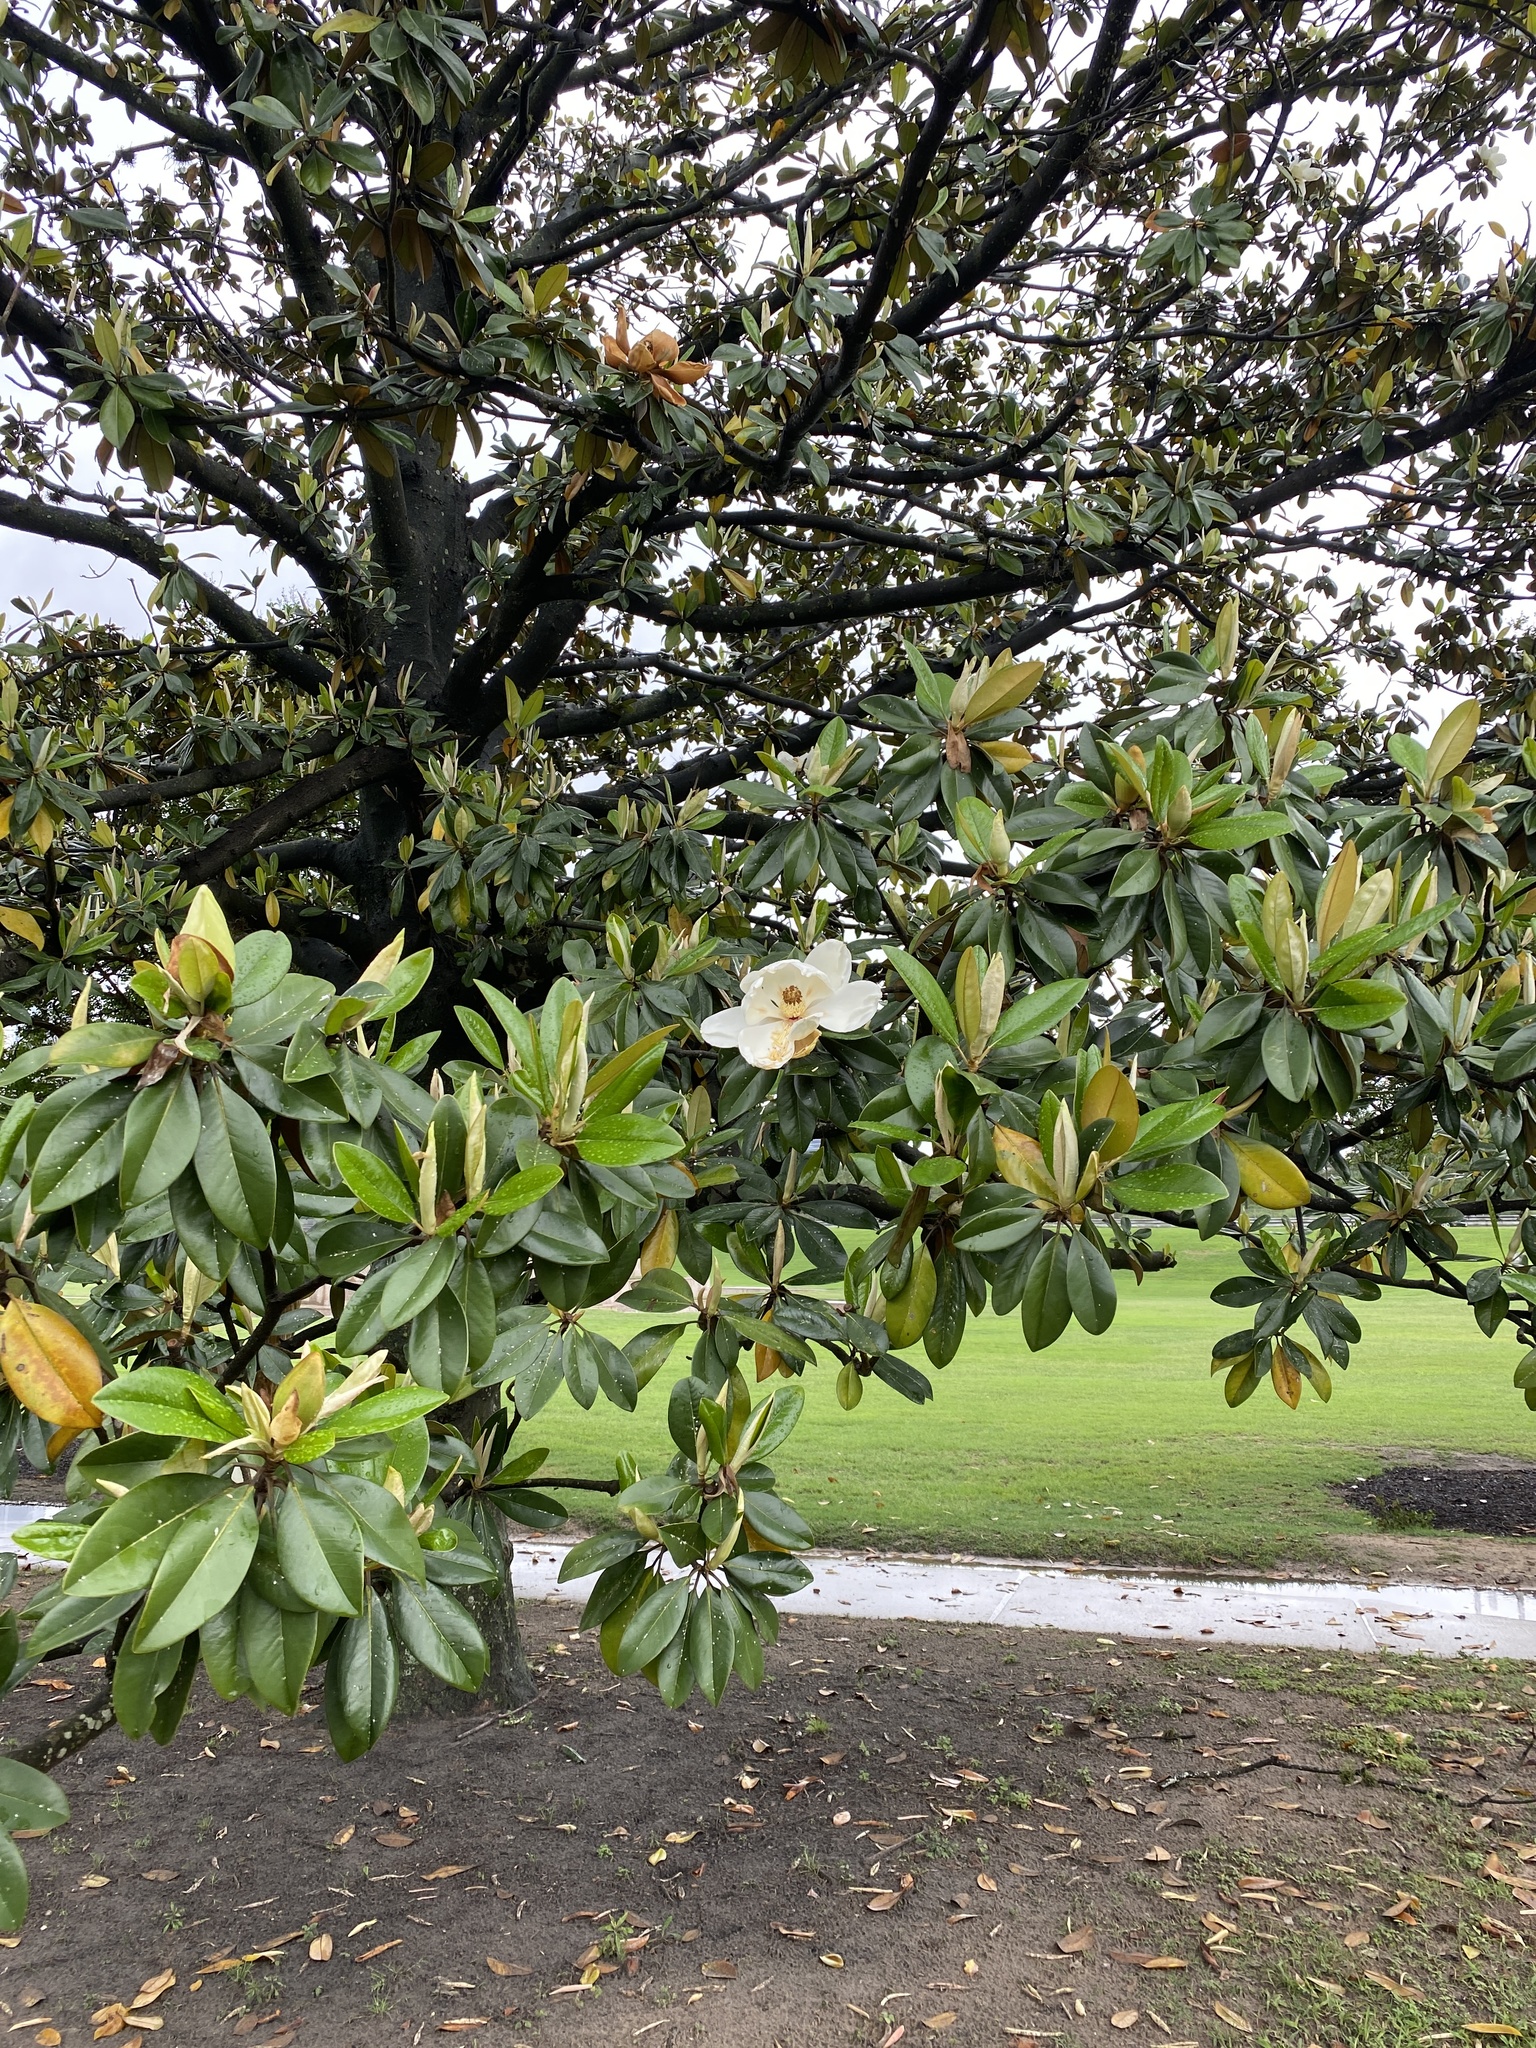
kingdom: Plantae
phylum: Tracheophyta
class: Magnoliopsida
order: Magnoliales
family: Magnoliaceae
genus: Magnolia
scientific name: Magnolia grandiflora
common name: Southern magnolia
